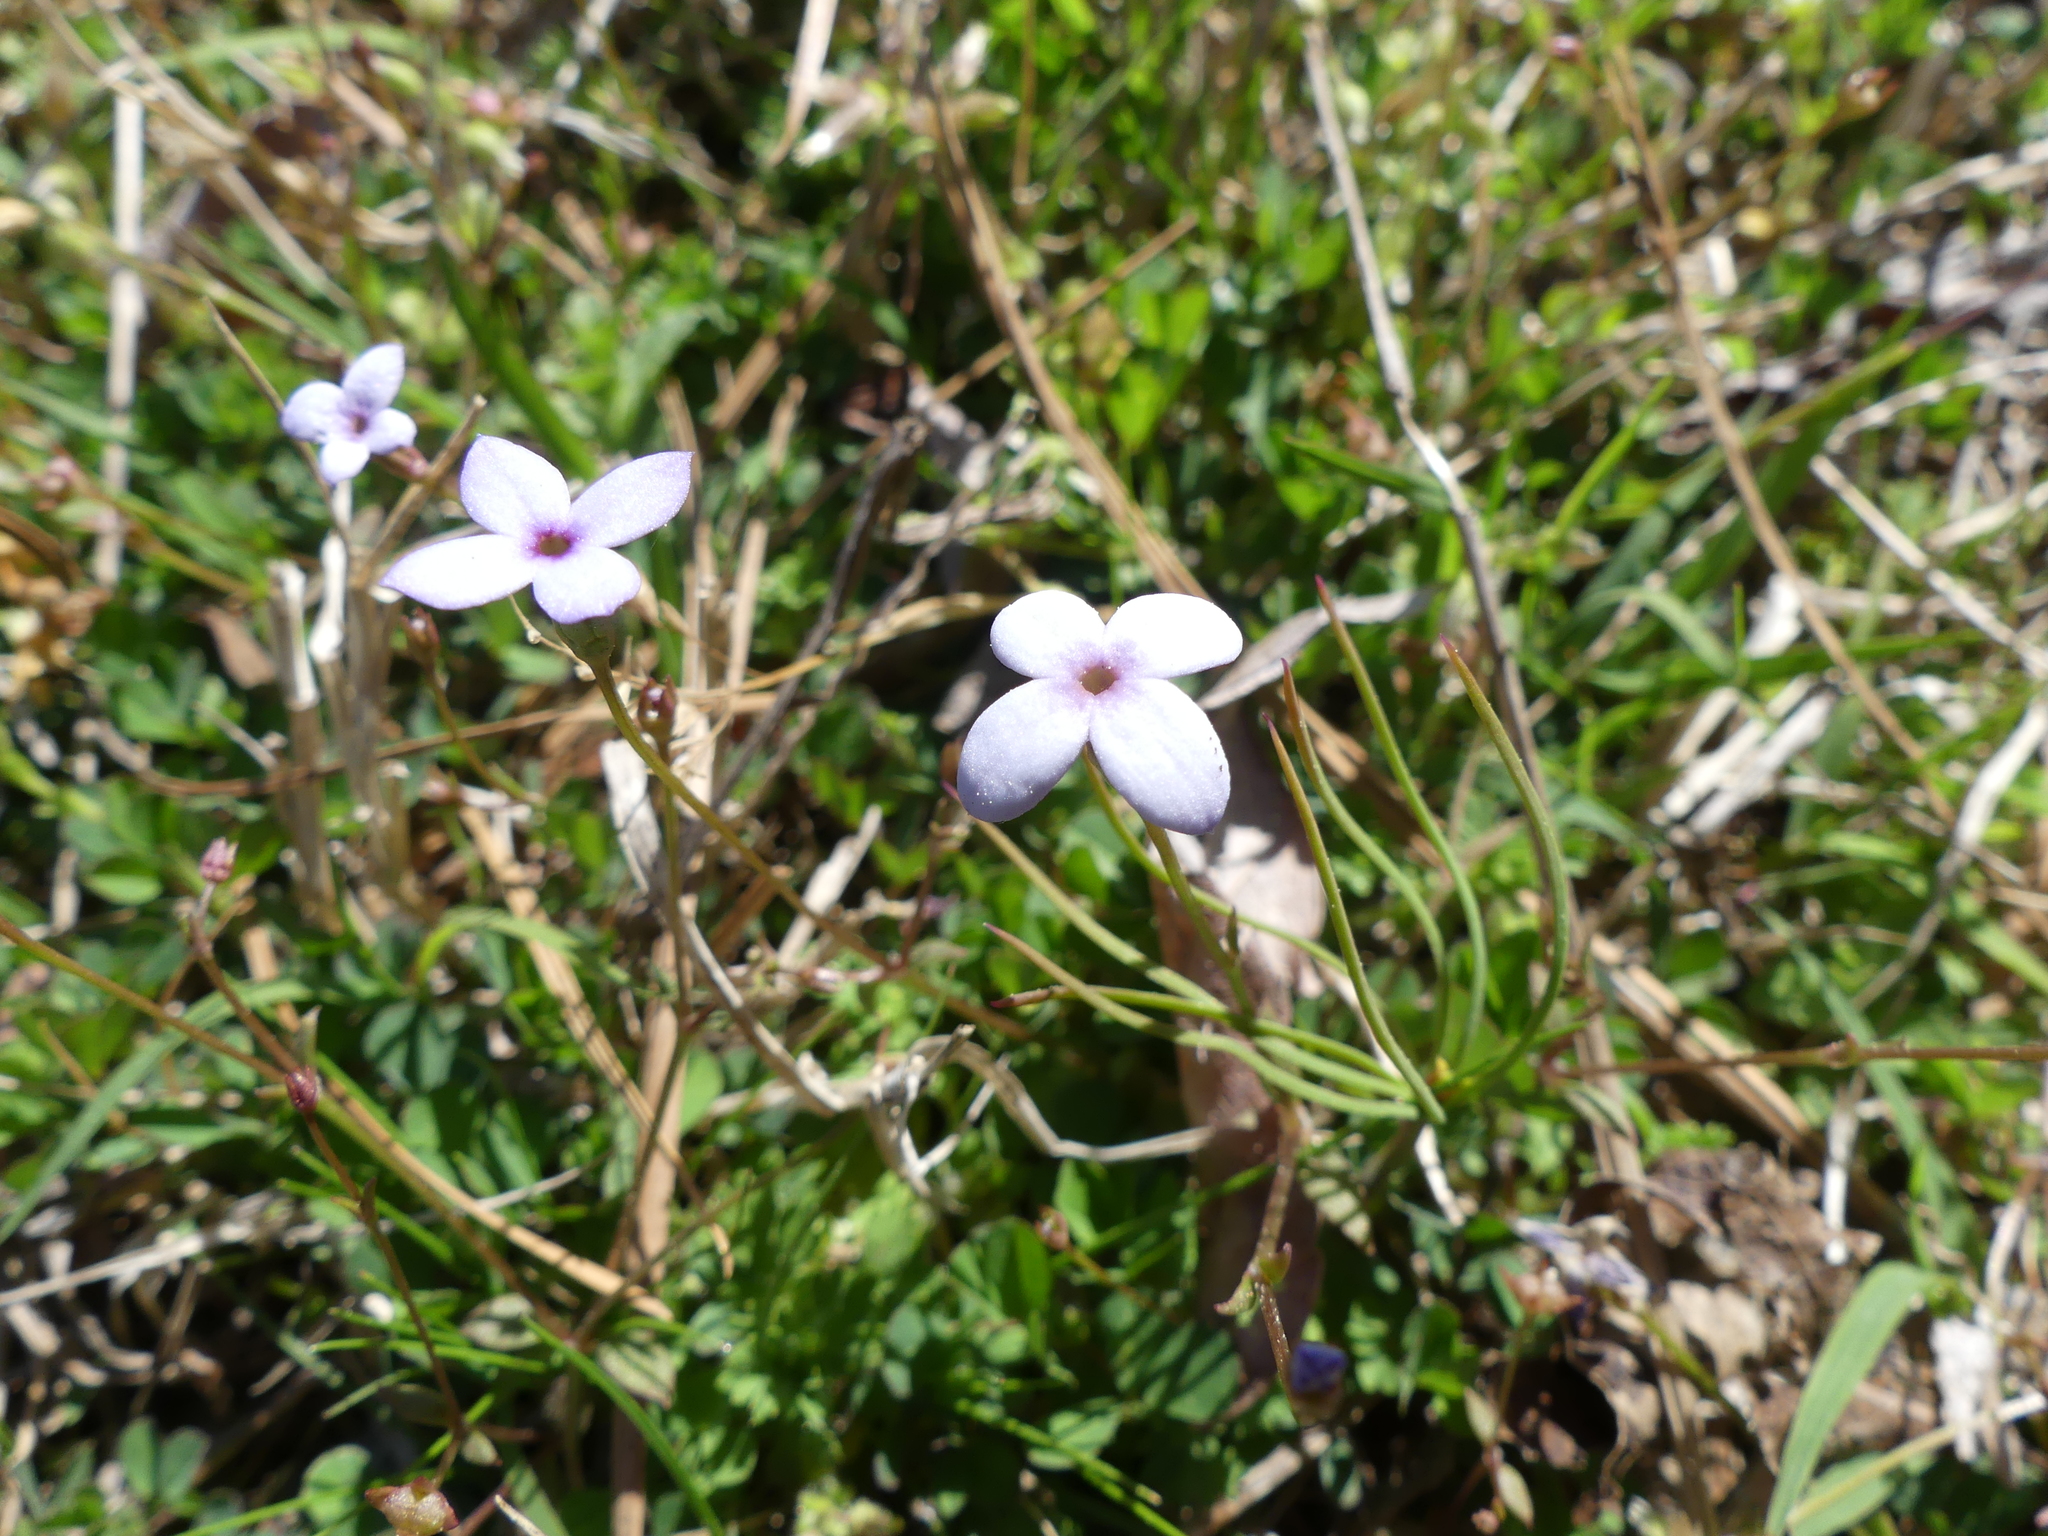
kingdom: Plantae
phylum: Tracheophyta
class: Magnoliopsida
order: Gentianales
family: Rubiaceae
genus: Houstonia
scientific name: Houstonia pusilla
